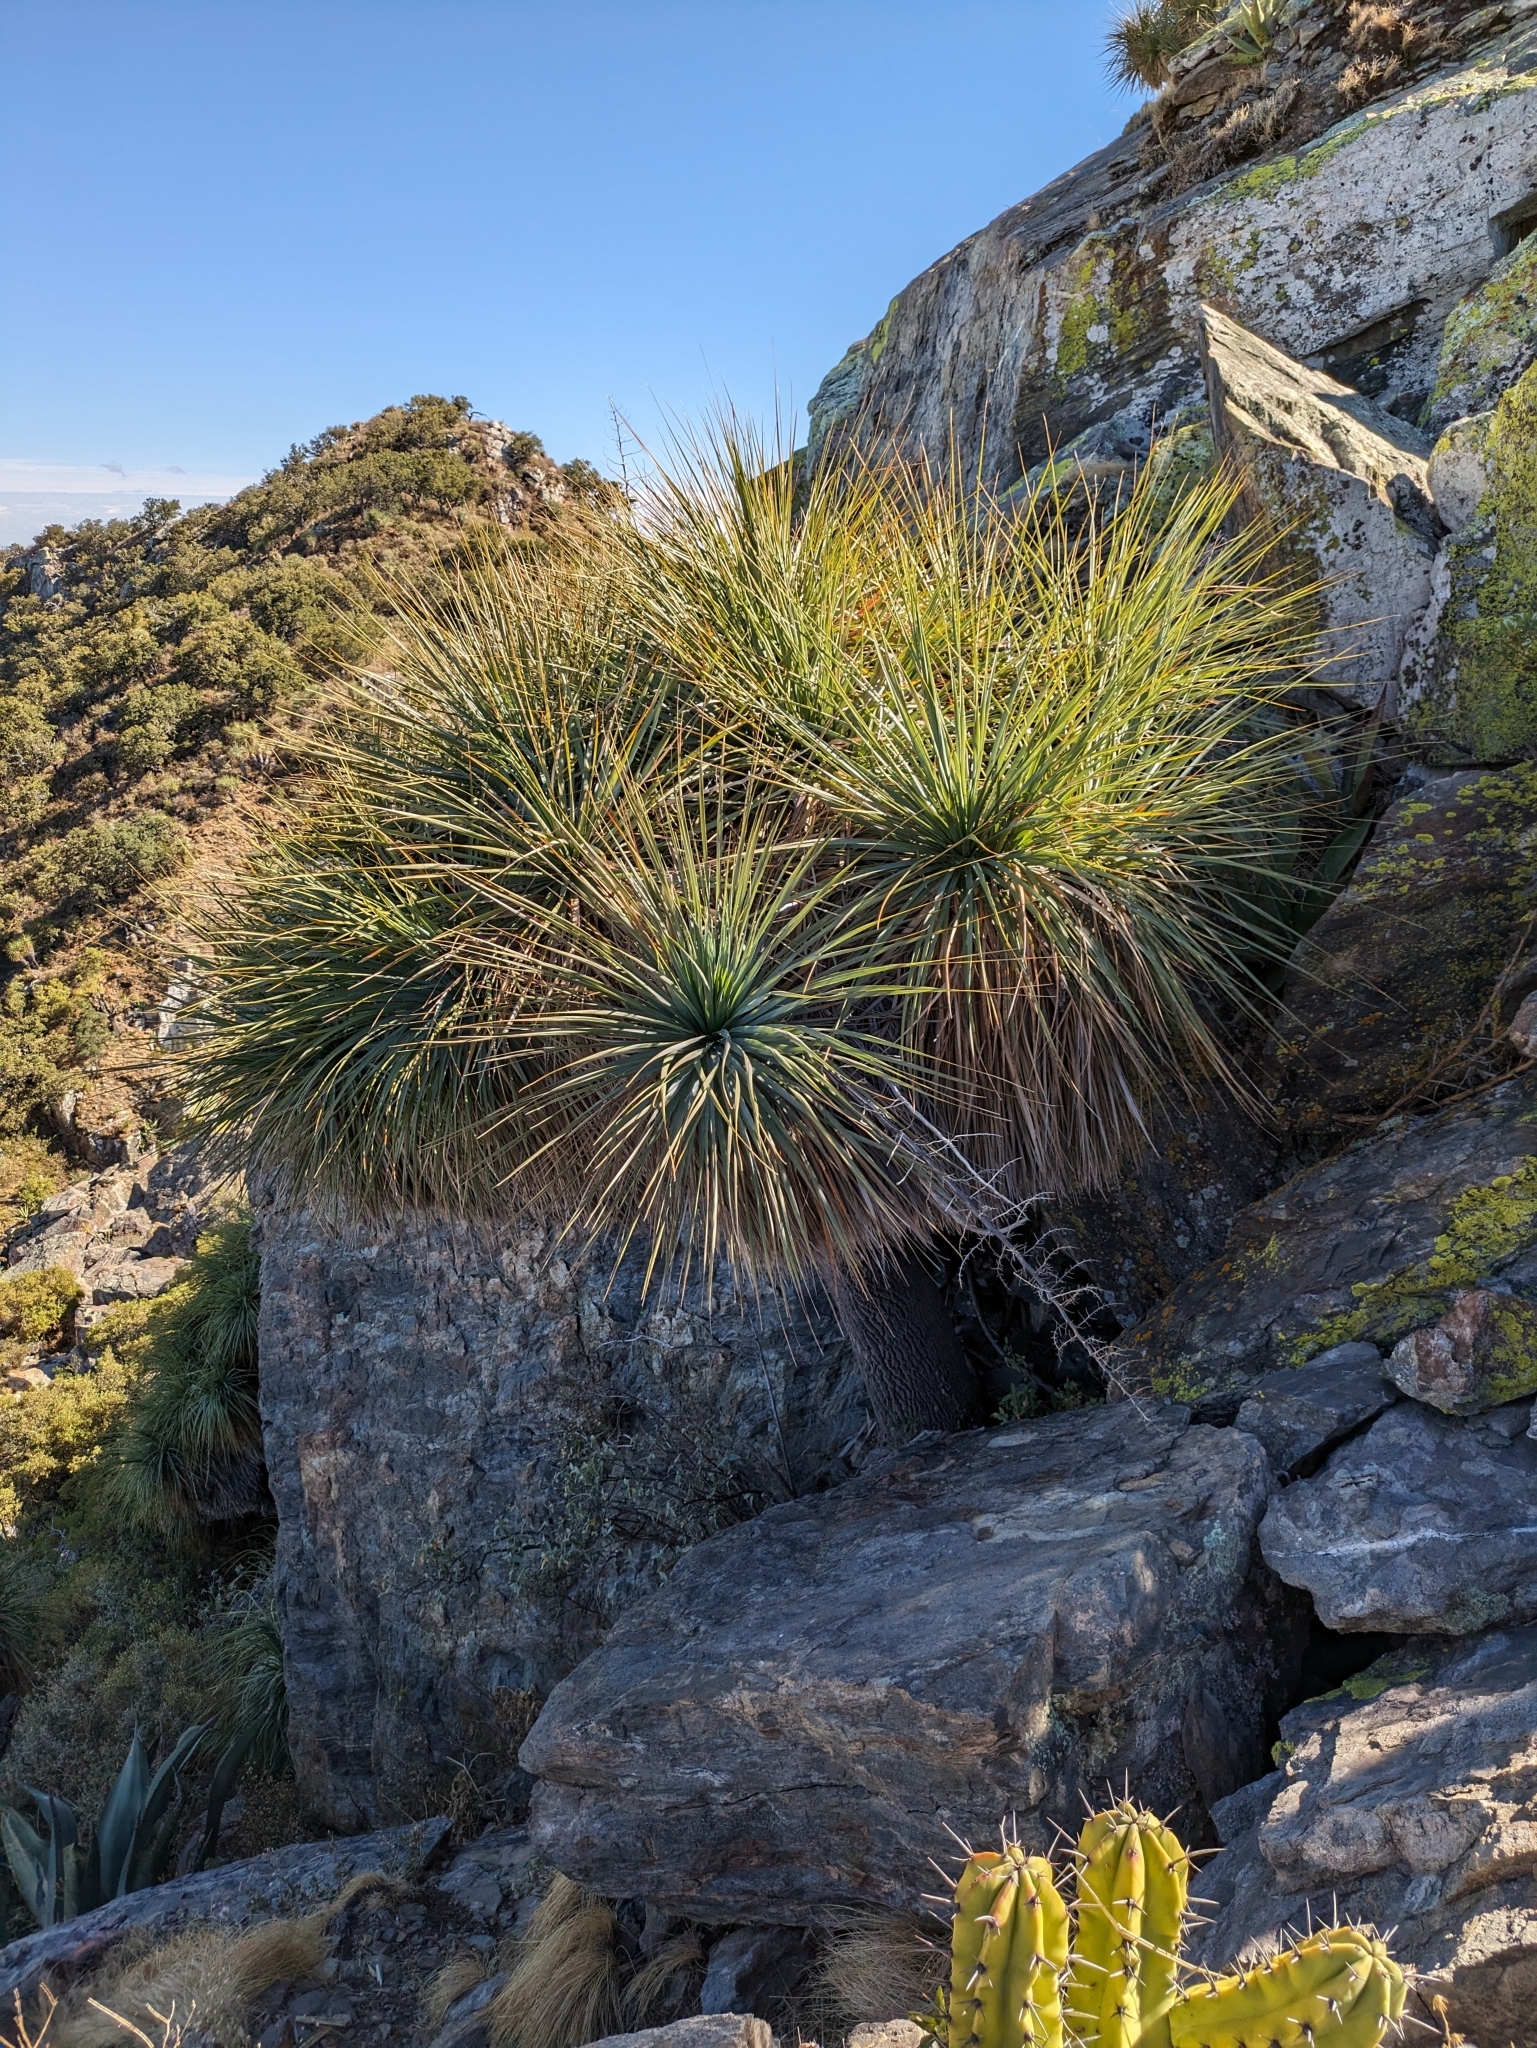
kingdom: Plantae
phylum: Tracheophyta
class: Liliopsida
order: Asparagales
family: Asparagaceae
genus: Nolina
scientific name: Nolina beldingii
